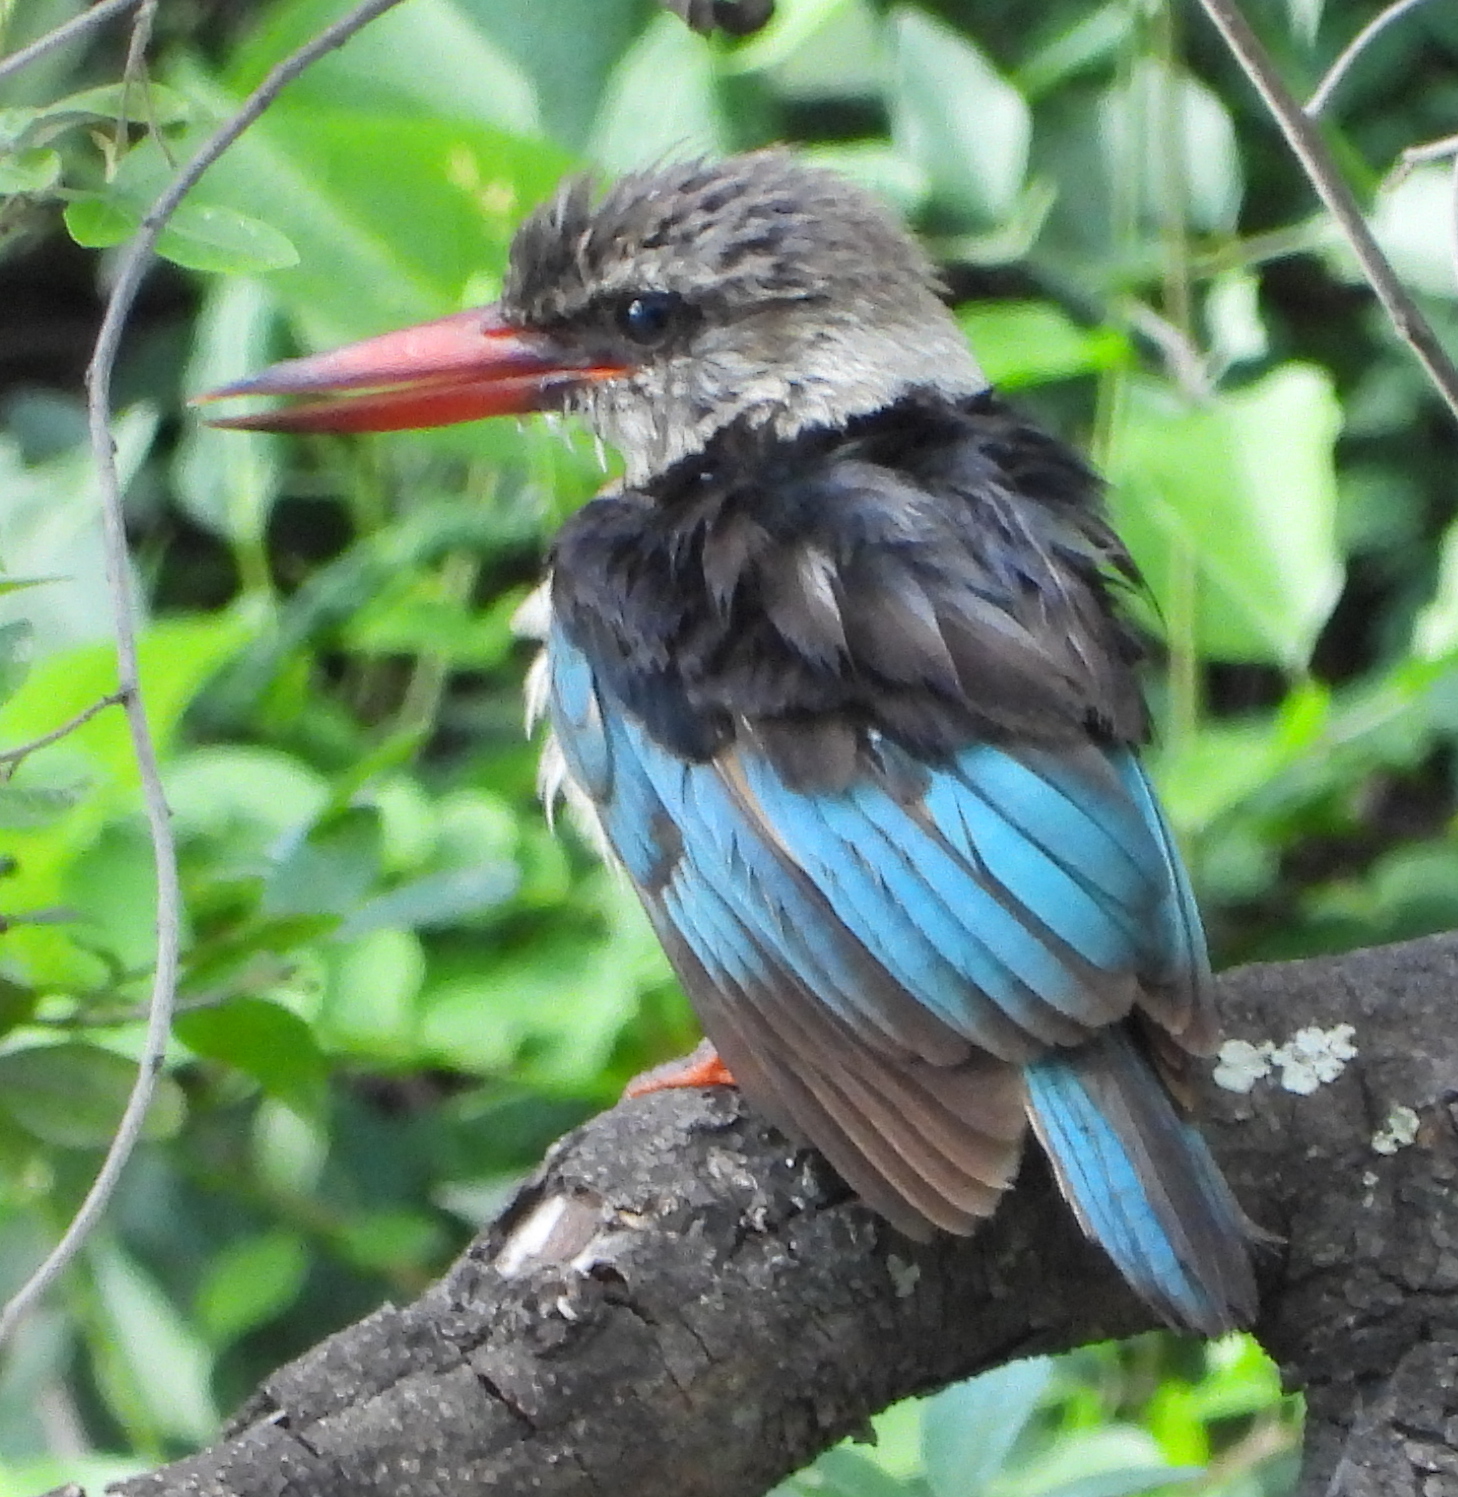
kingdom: Animalia
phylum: Chordata
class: Aves
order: Coraciiformes
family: Alcedinidae
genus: Halcyon
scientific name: Halcyon albiventris
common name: Brown-hooded kingfisher
